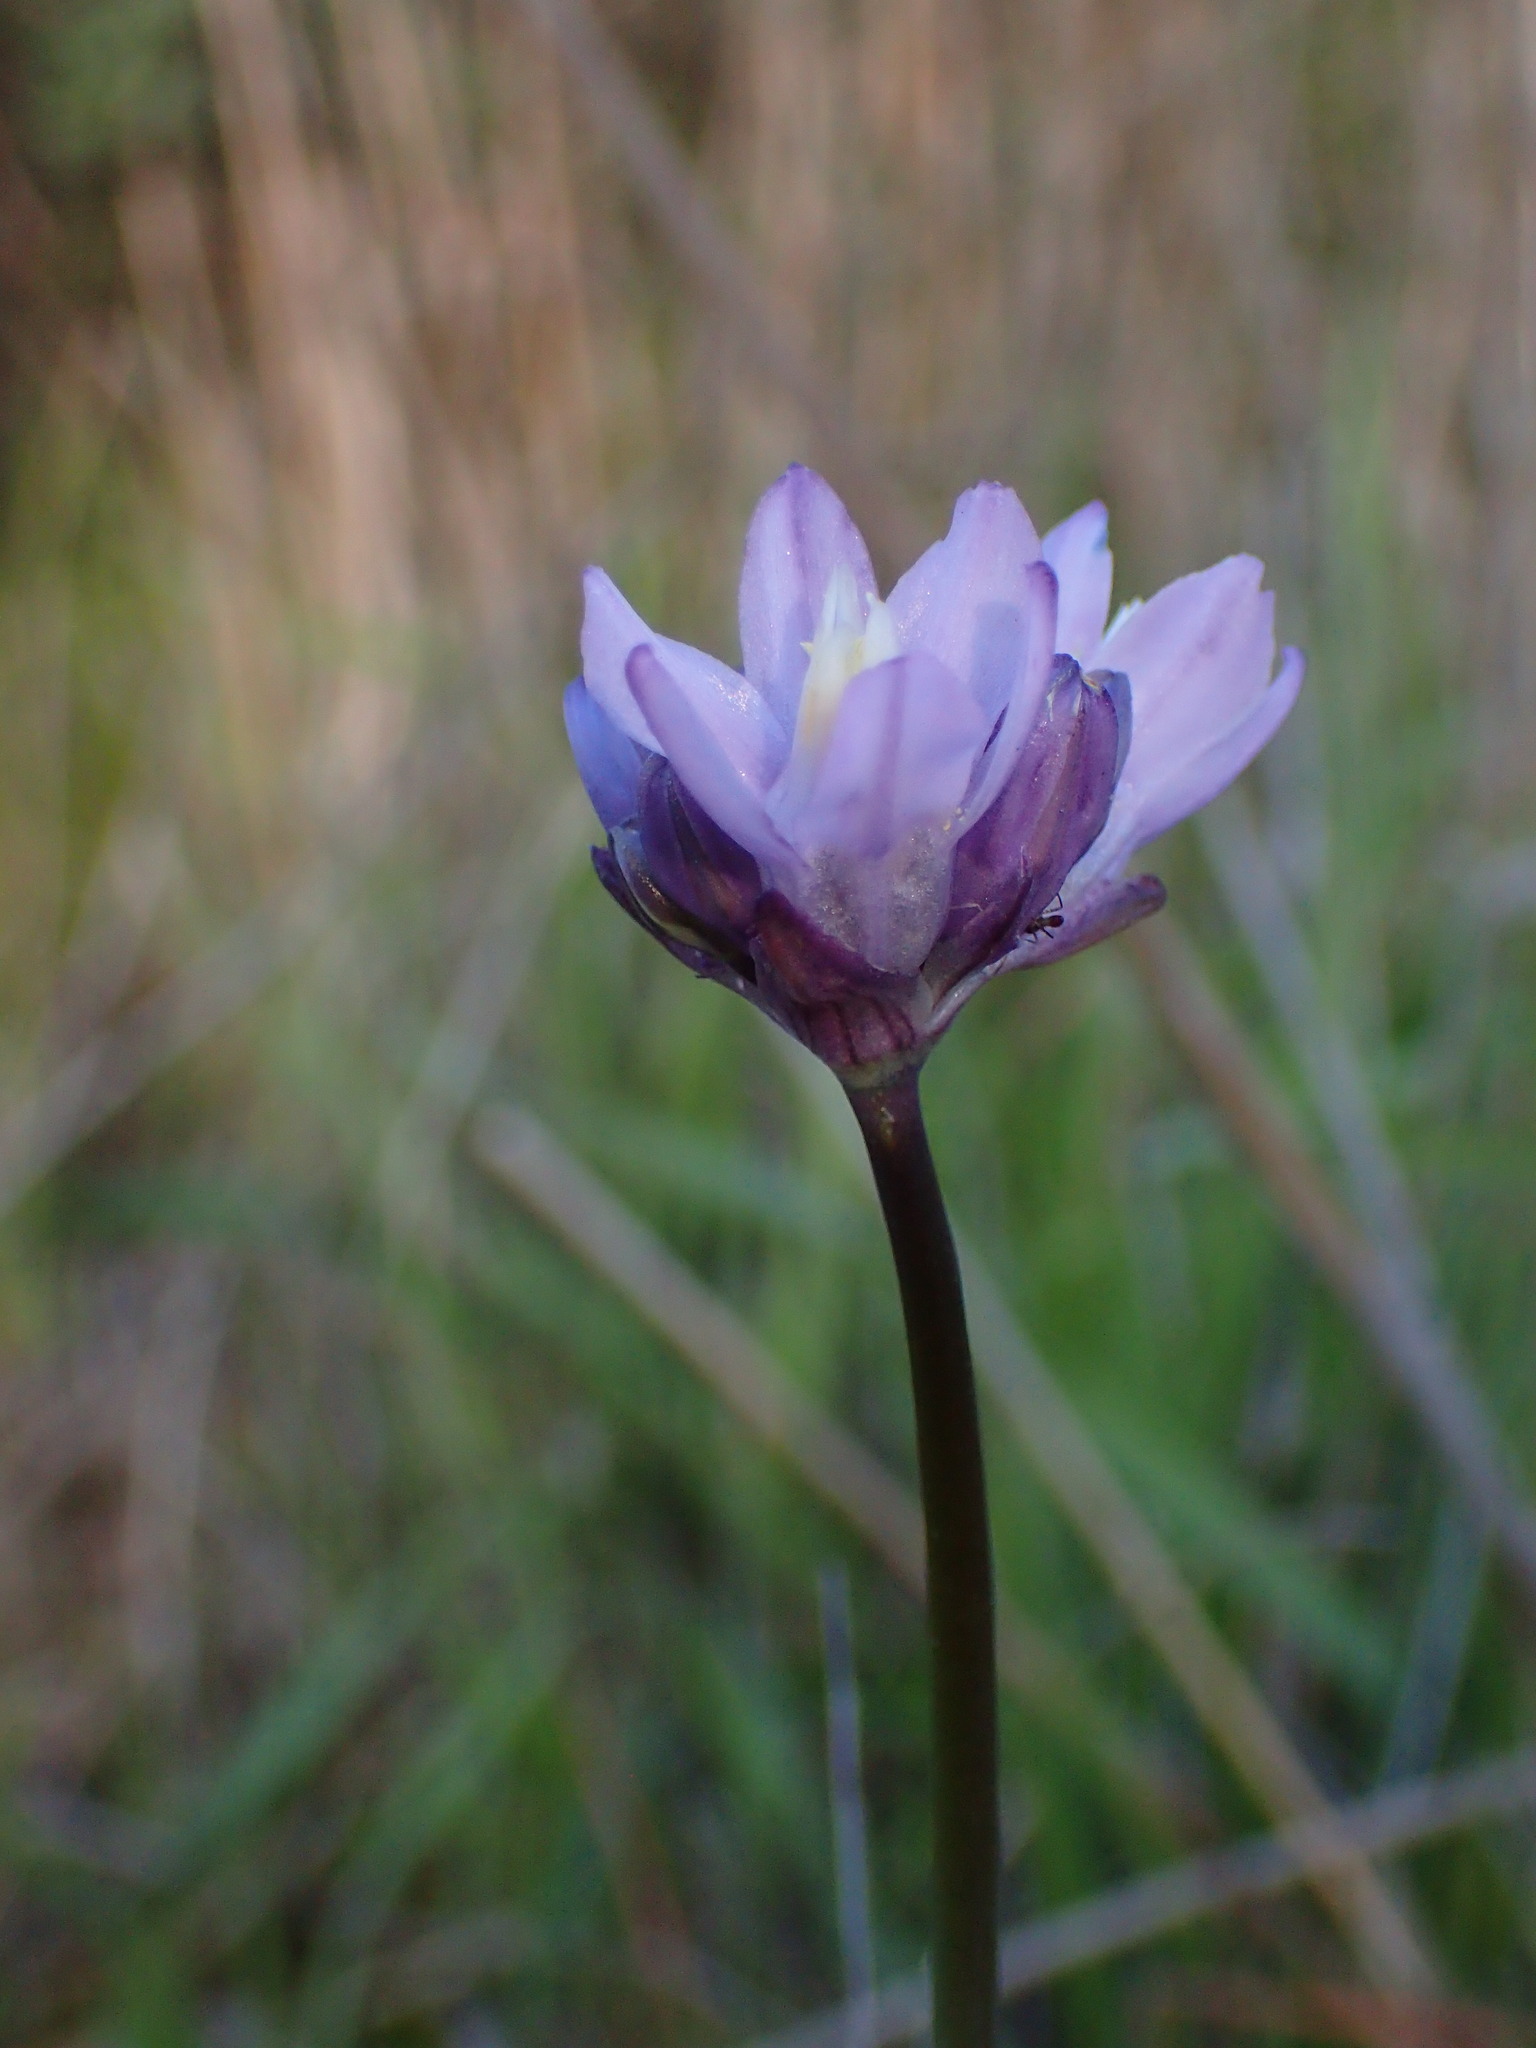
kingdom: Plantae
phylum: Tracheophyta
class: Liliopsida
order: Asparagales
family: Asparagaceae
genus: Dipterostemon
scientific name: Dipterostemon capitatus
